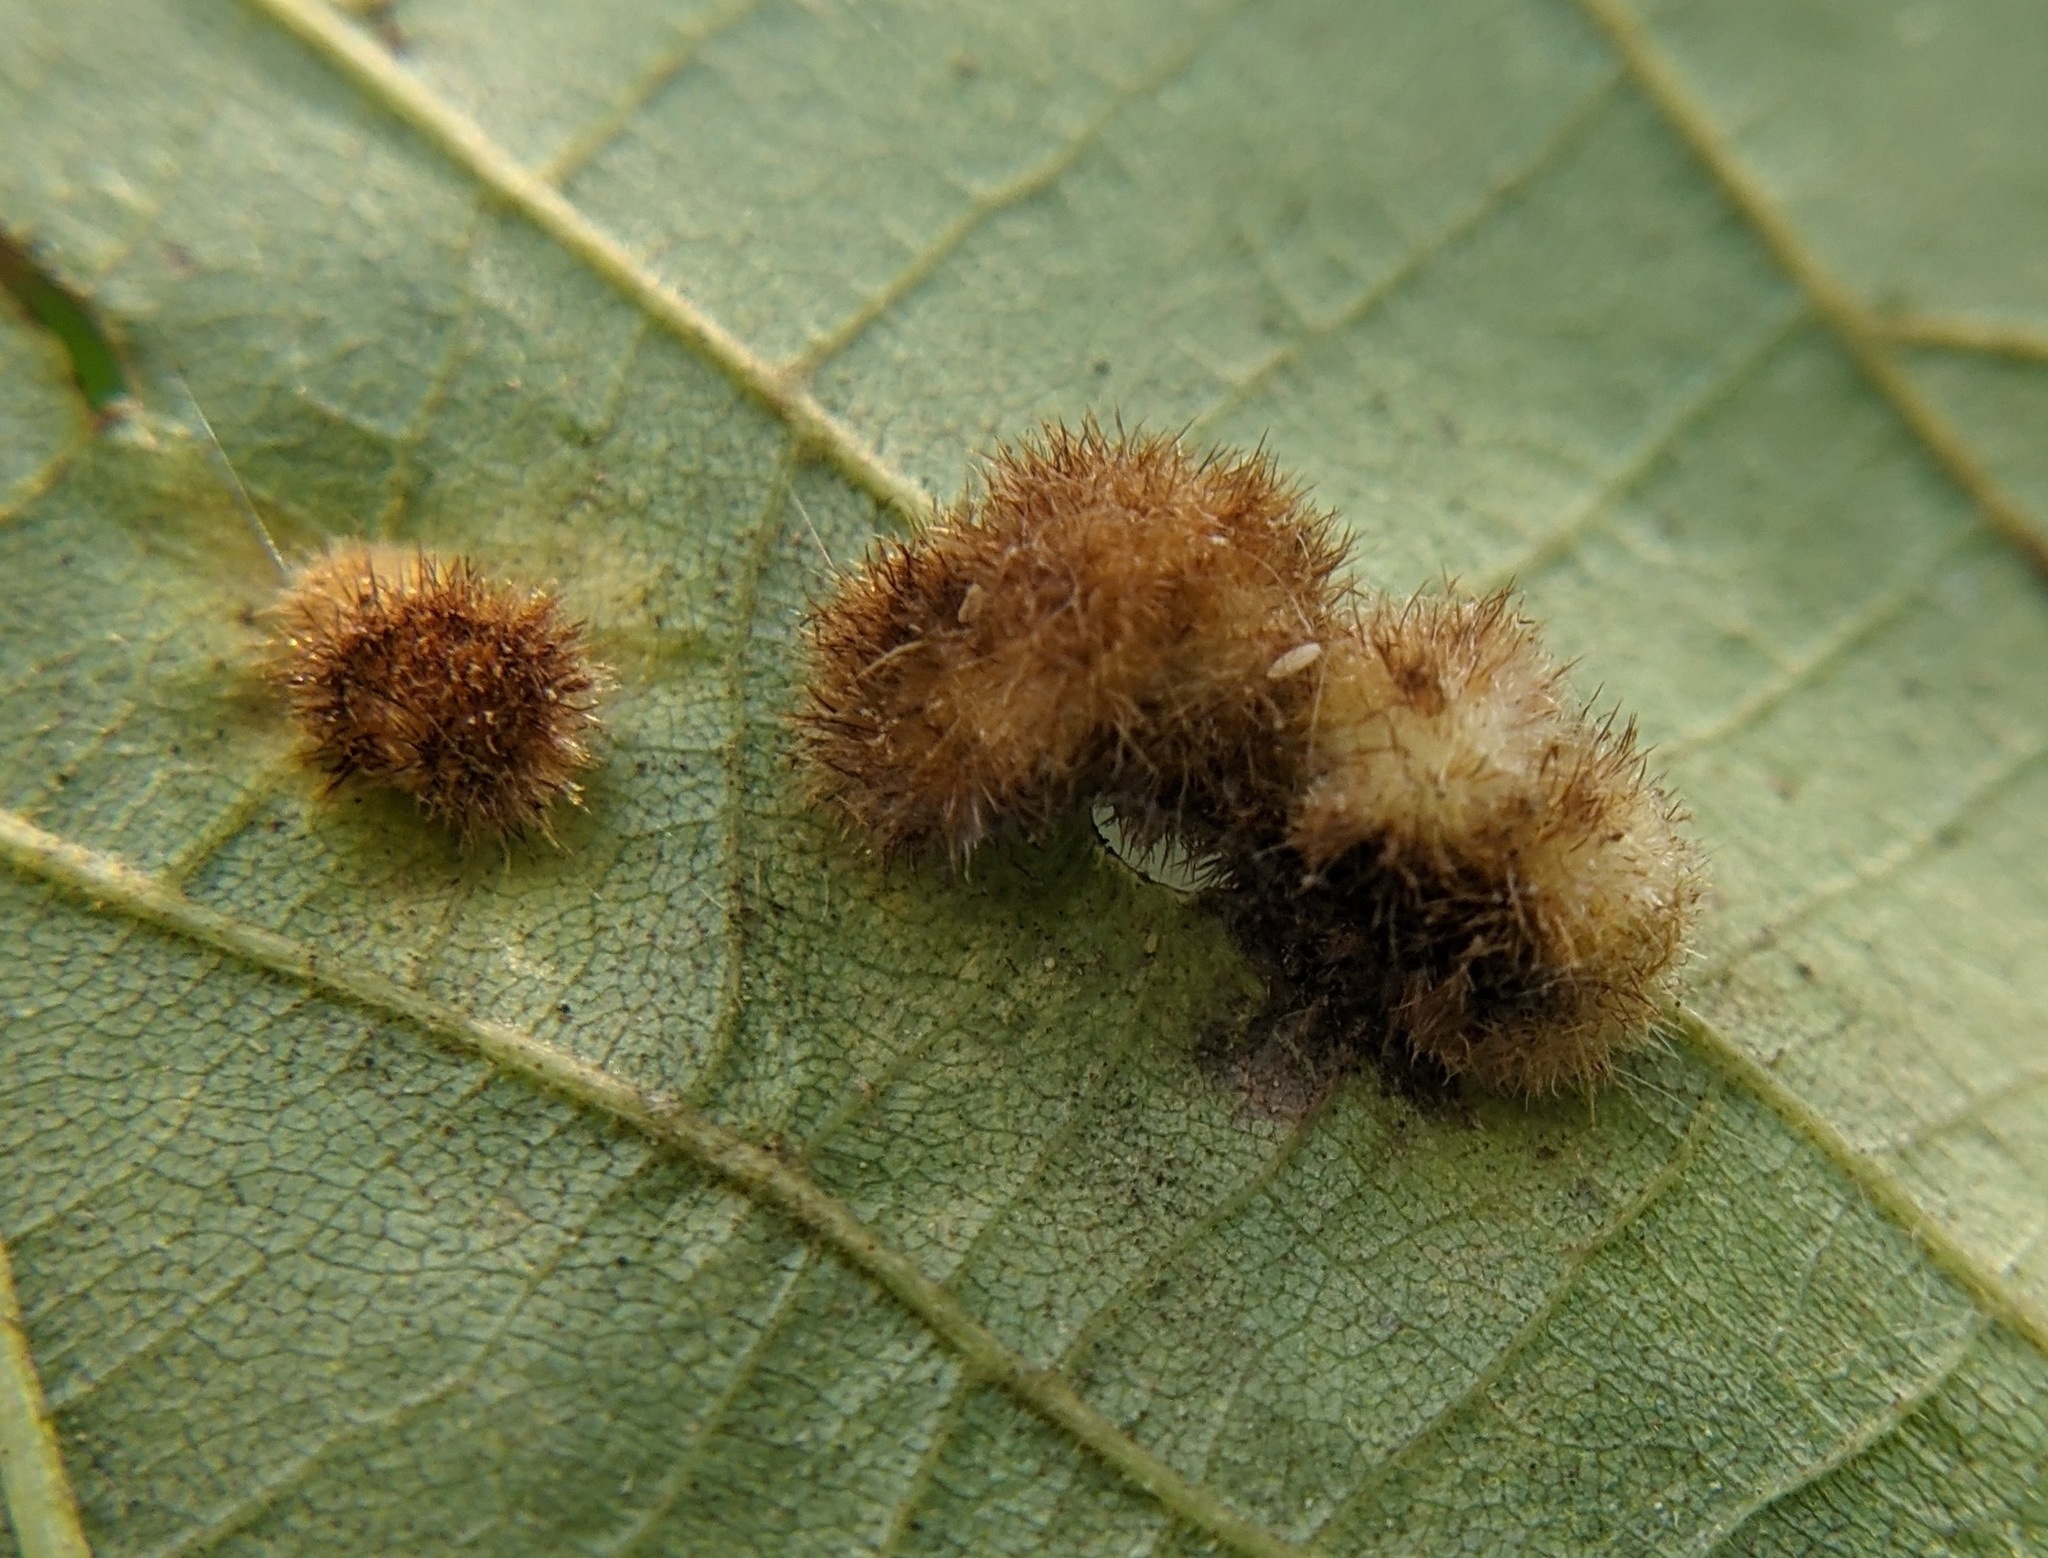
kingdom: Animalia
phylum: Arthropoda
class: Insecta
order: Diptera
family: Cecidomyiidae
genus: Caryomyia
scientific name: Caryomyia aggregata
